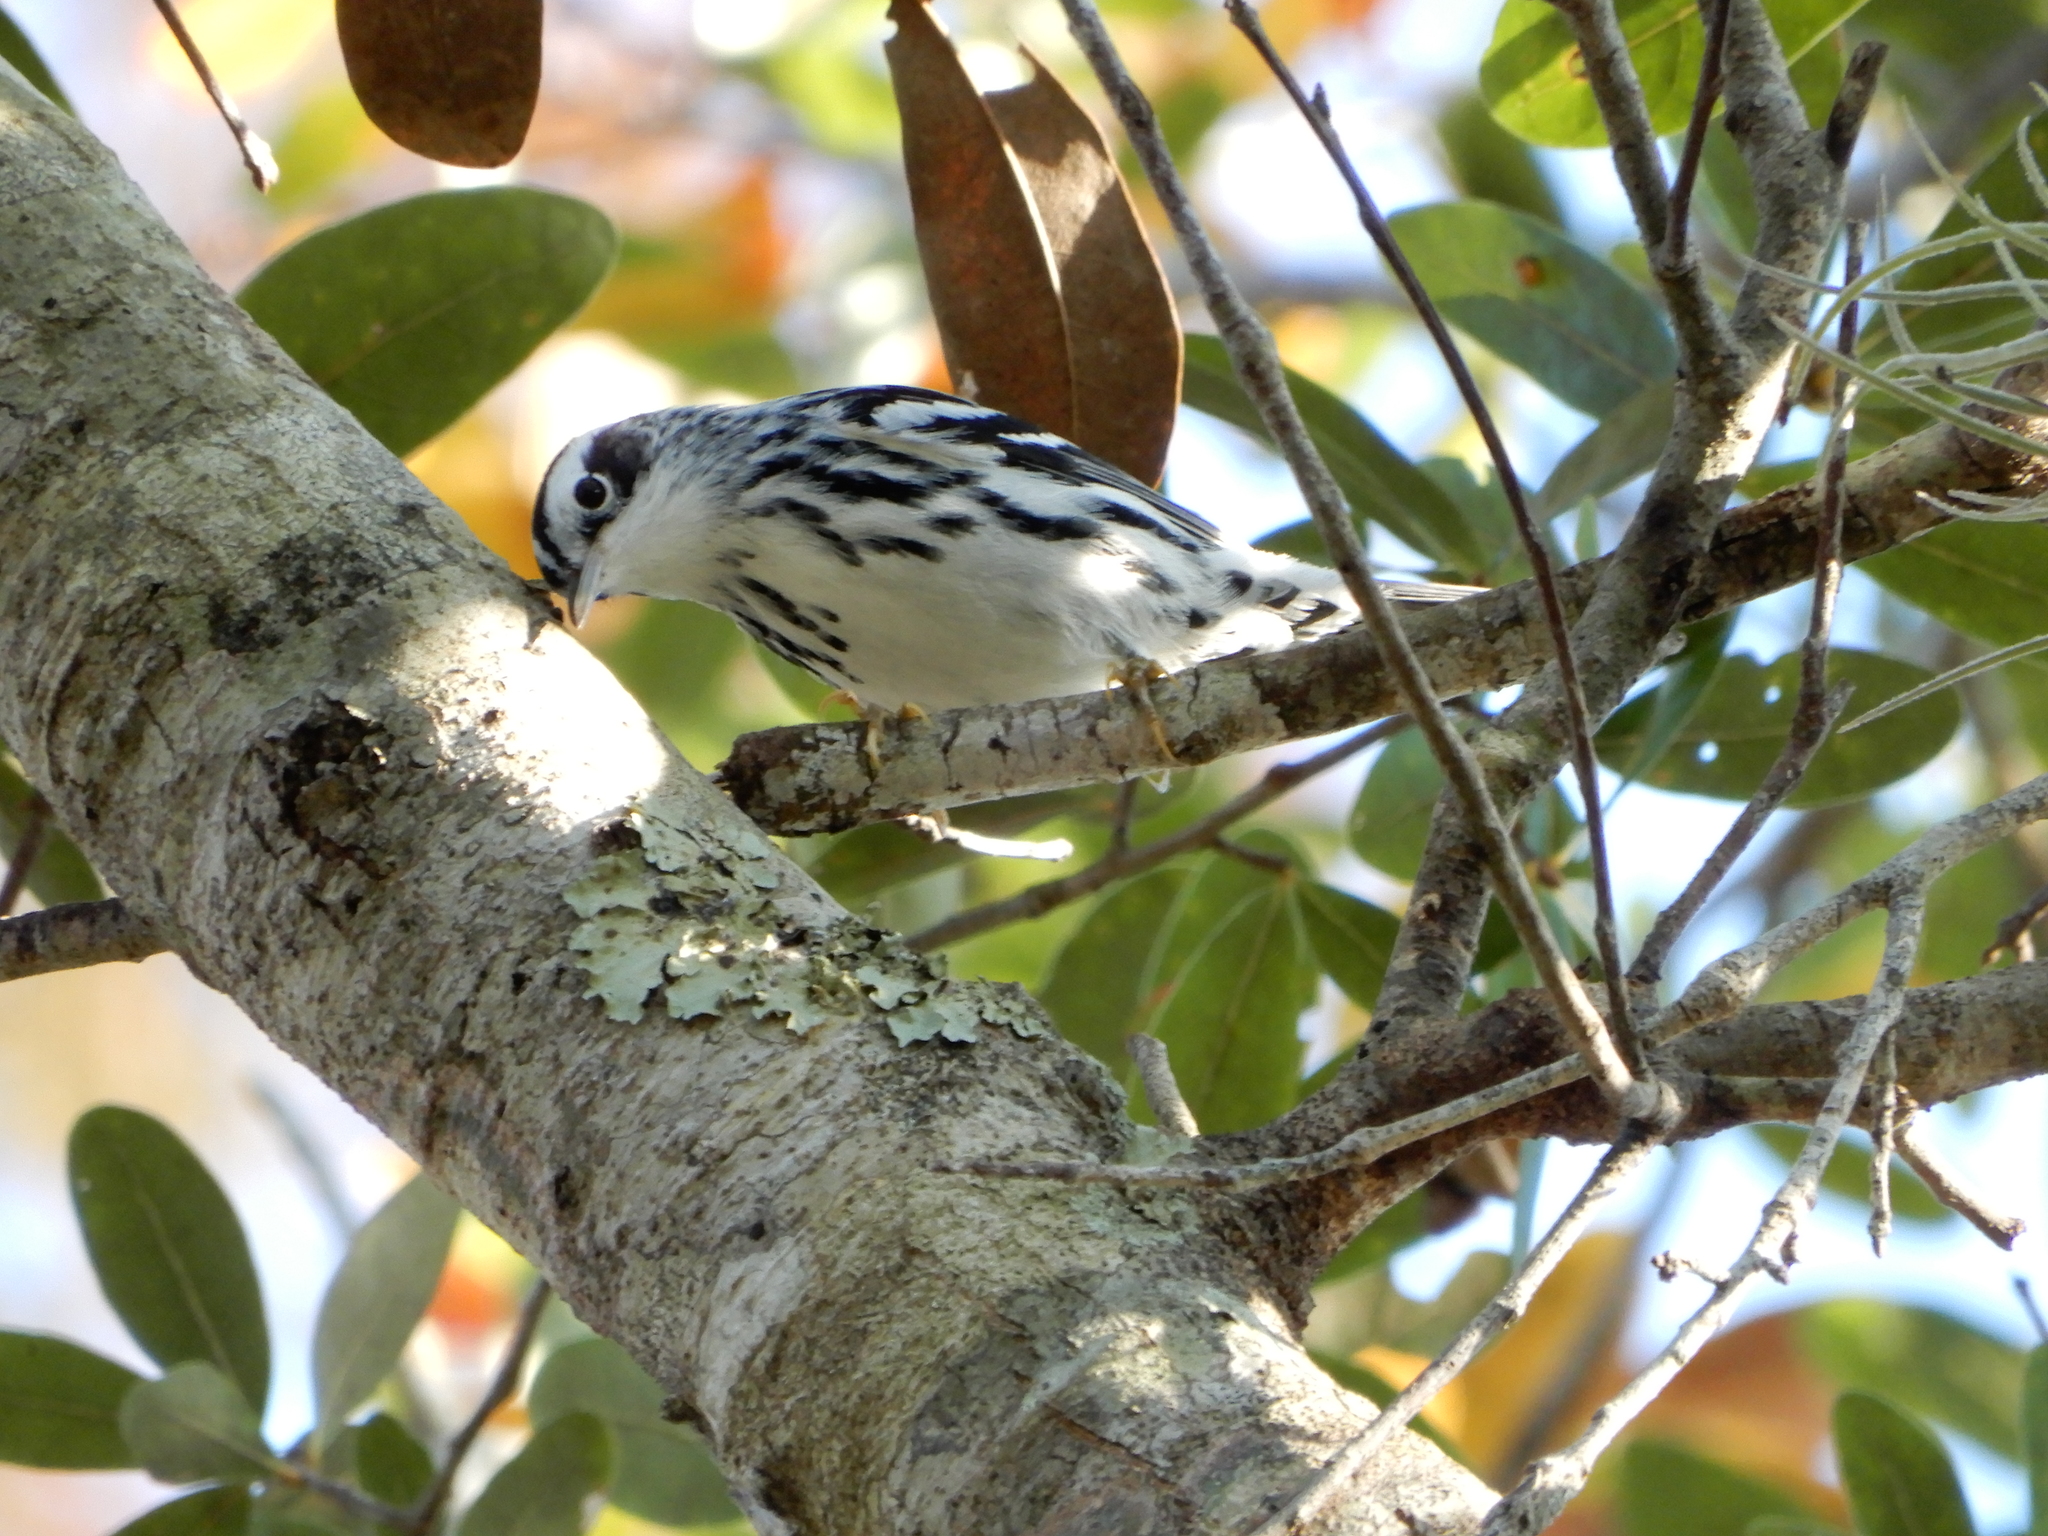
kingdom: Animalia
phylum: Chordata
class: Aves
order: Passeriformes
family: Parulidae
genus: Mniotilta
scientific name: Mniotilta varia
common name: Black-and-white warbler
